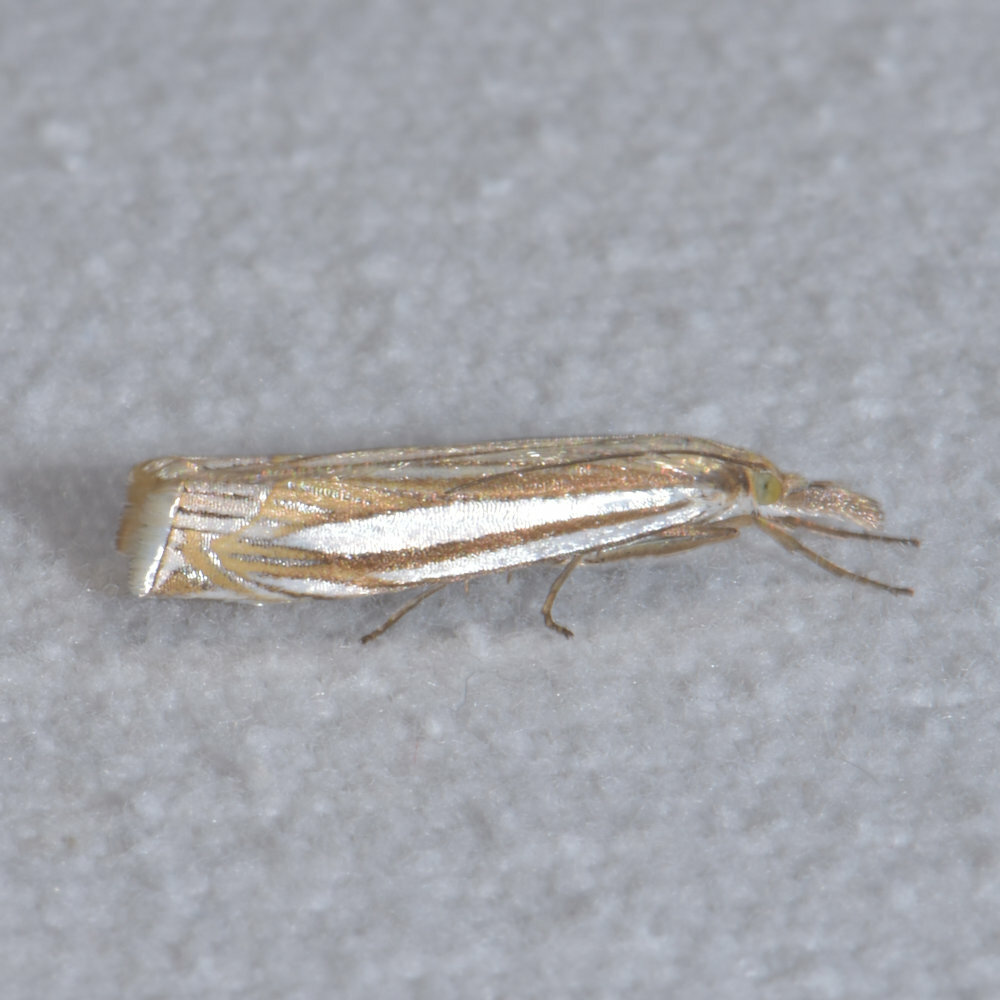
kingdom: Animalia
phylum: Arthropoda
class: Insecta
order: Lepidoptera
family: Crambidae
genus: Crambus
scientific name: Crambus laqueatellus
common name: Eastern grass-veneer
